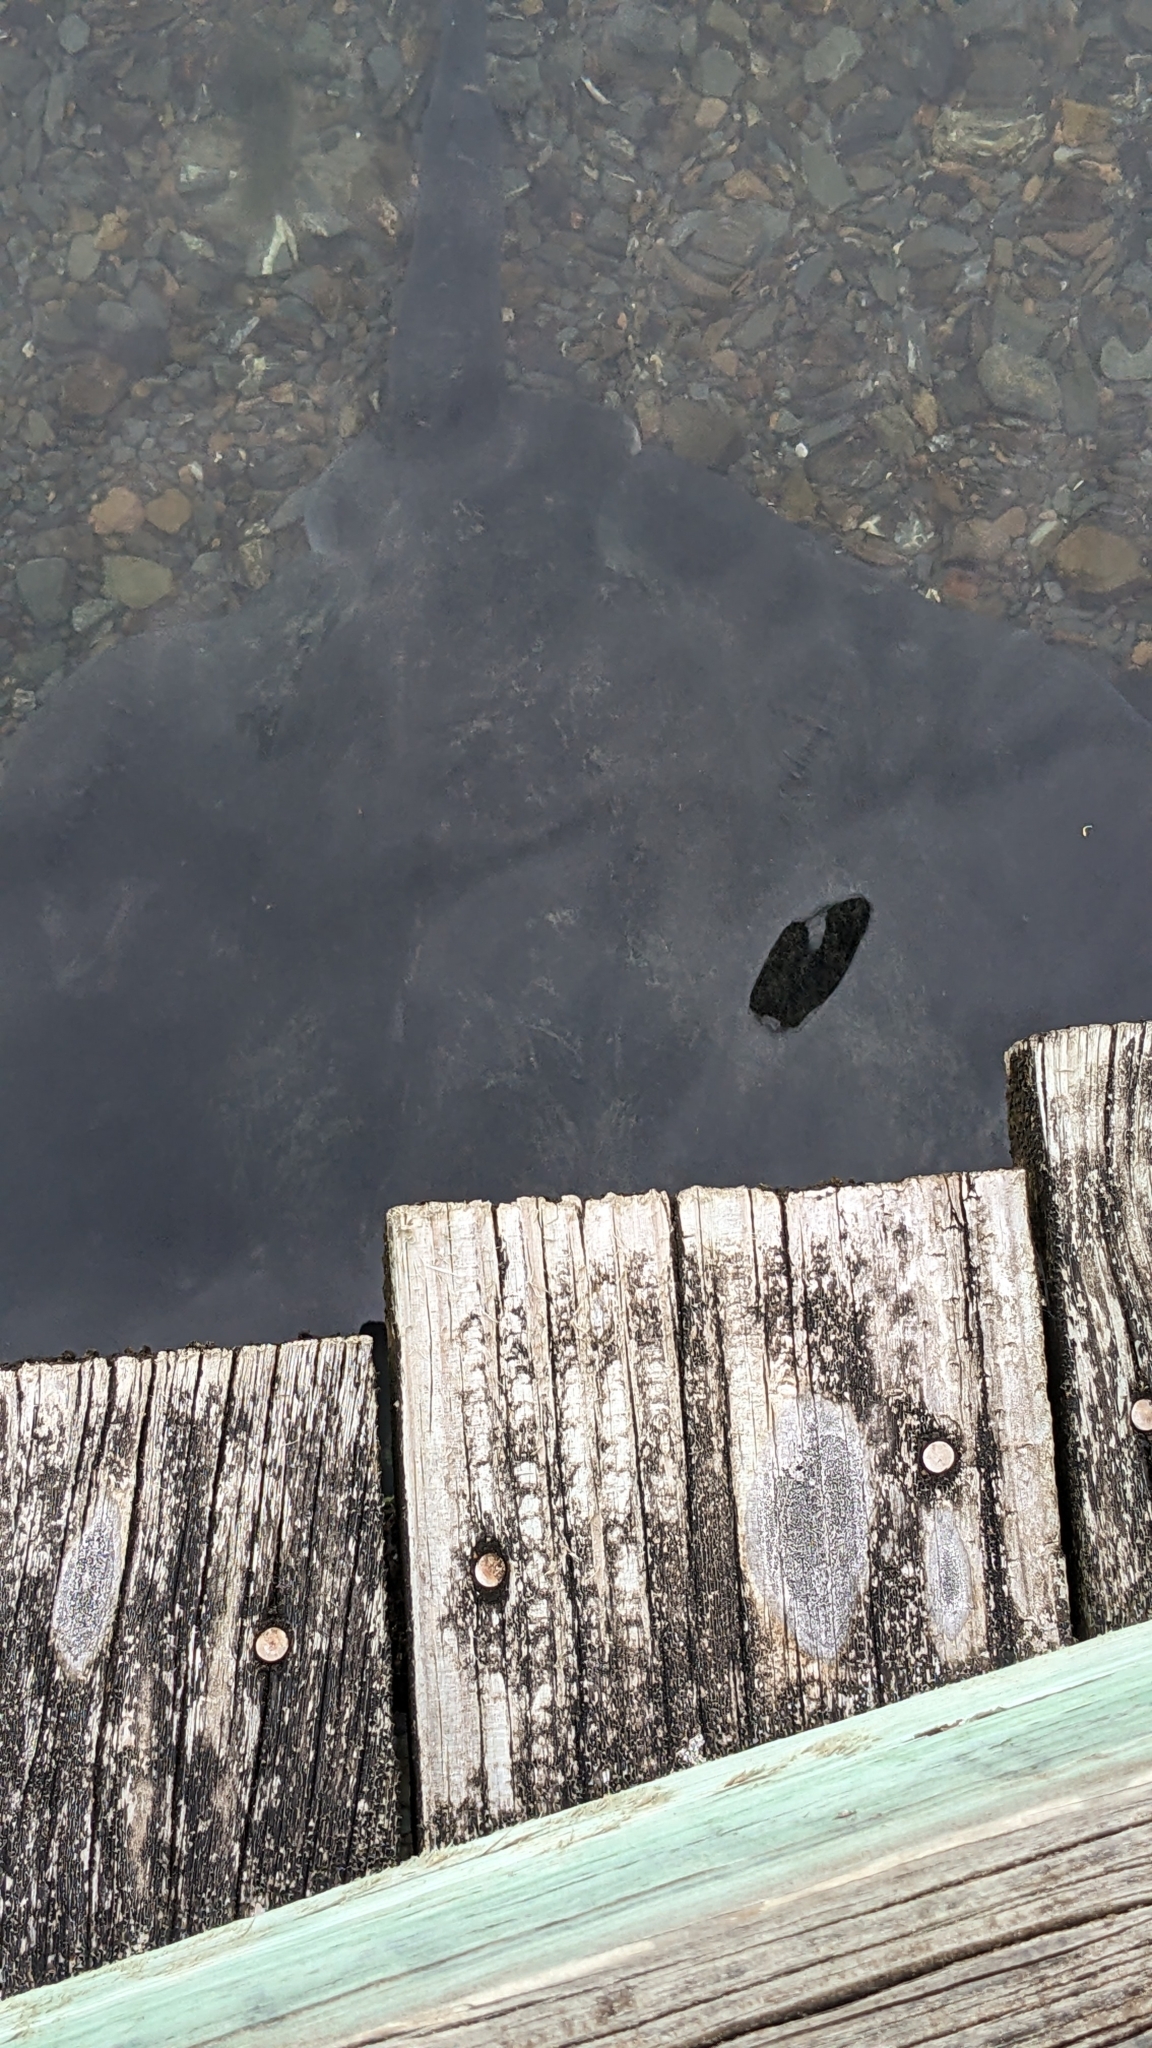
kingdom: Animalia
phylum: Chordata
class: Elasmobranchii
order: Myliobatiformes
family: Dasyatidae
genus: Bathytoshia
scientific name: Bathytoshia brevicaudata
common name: Short-tail stingray
